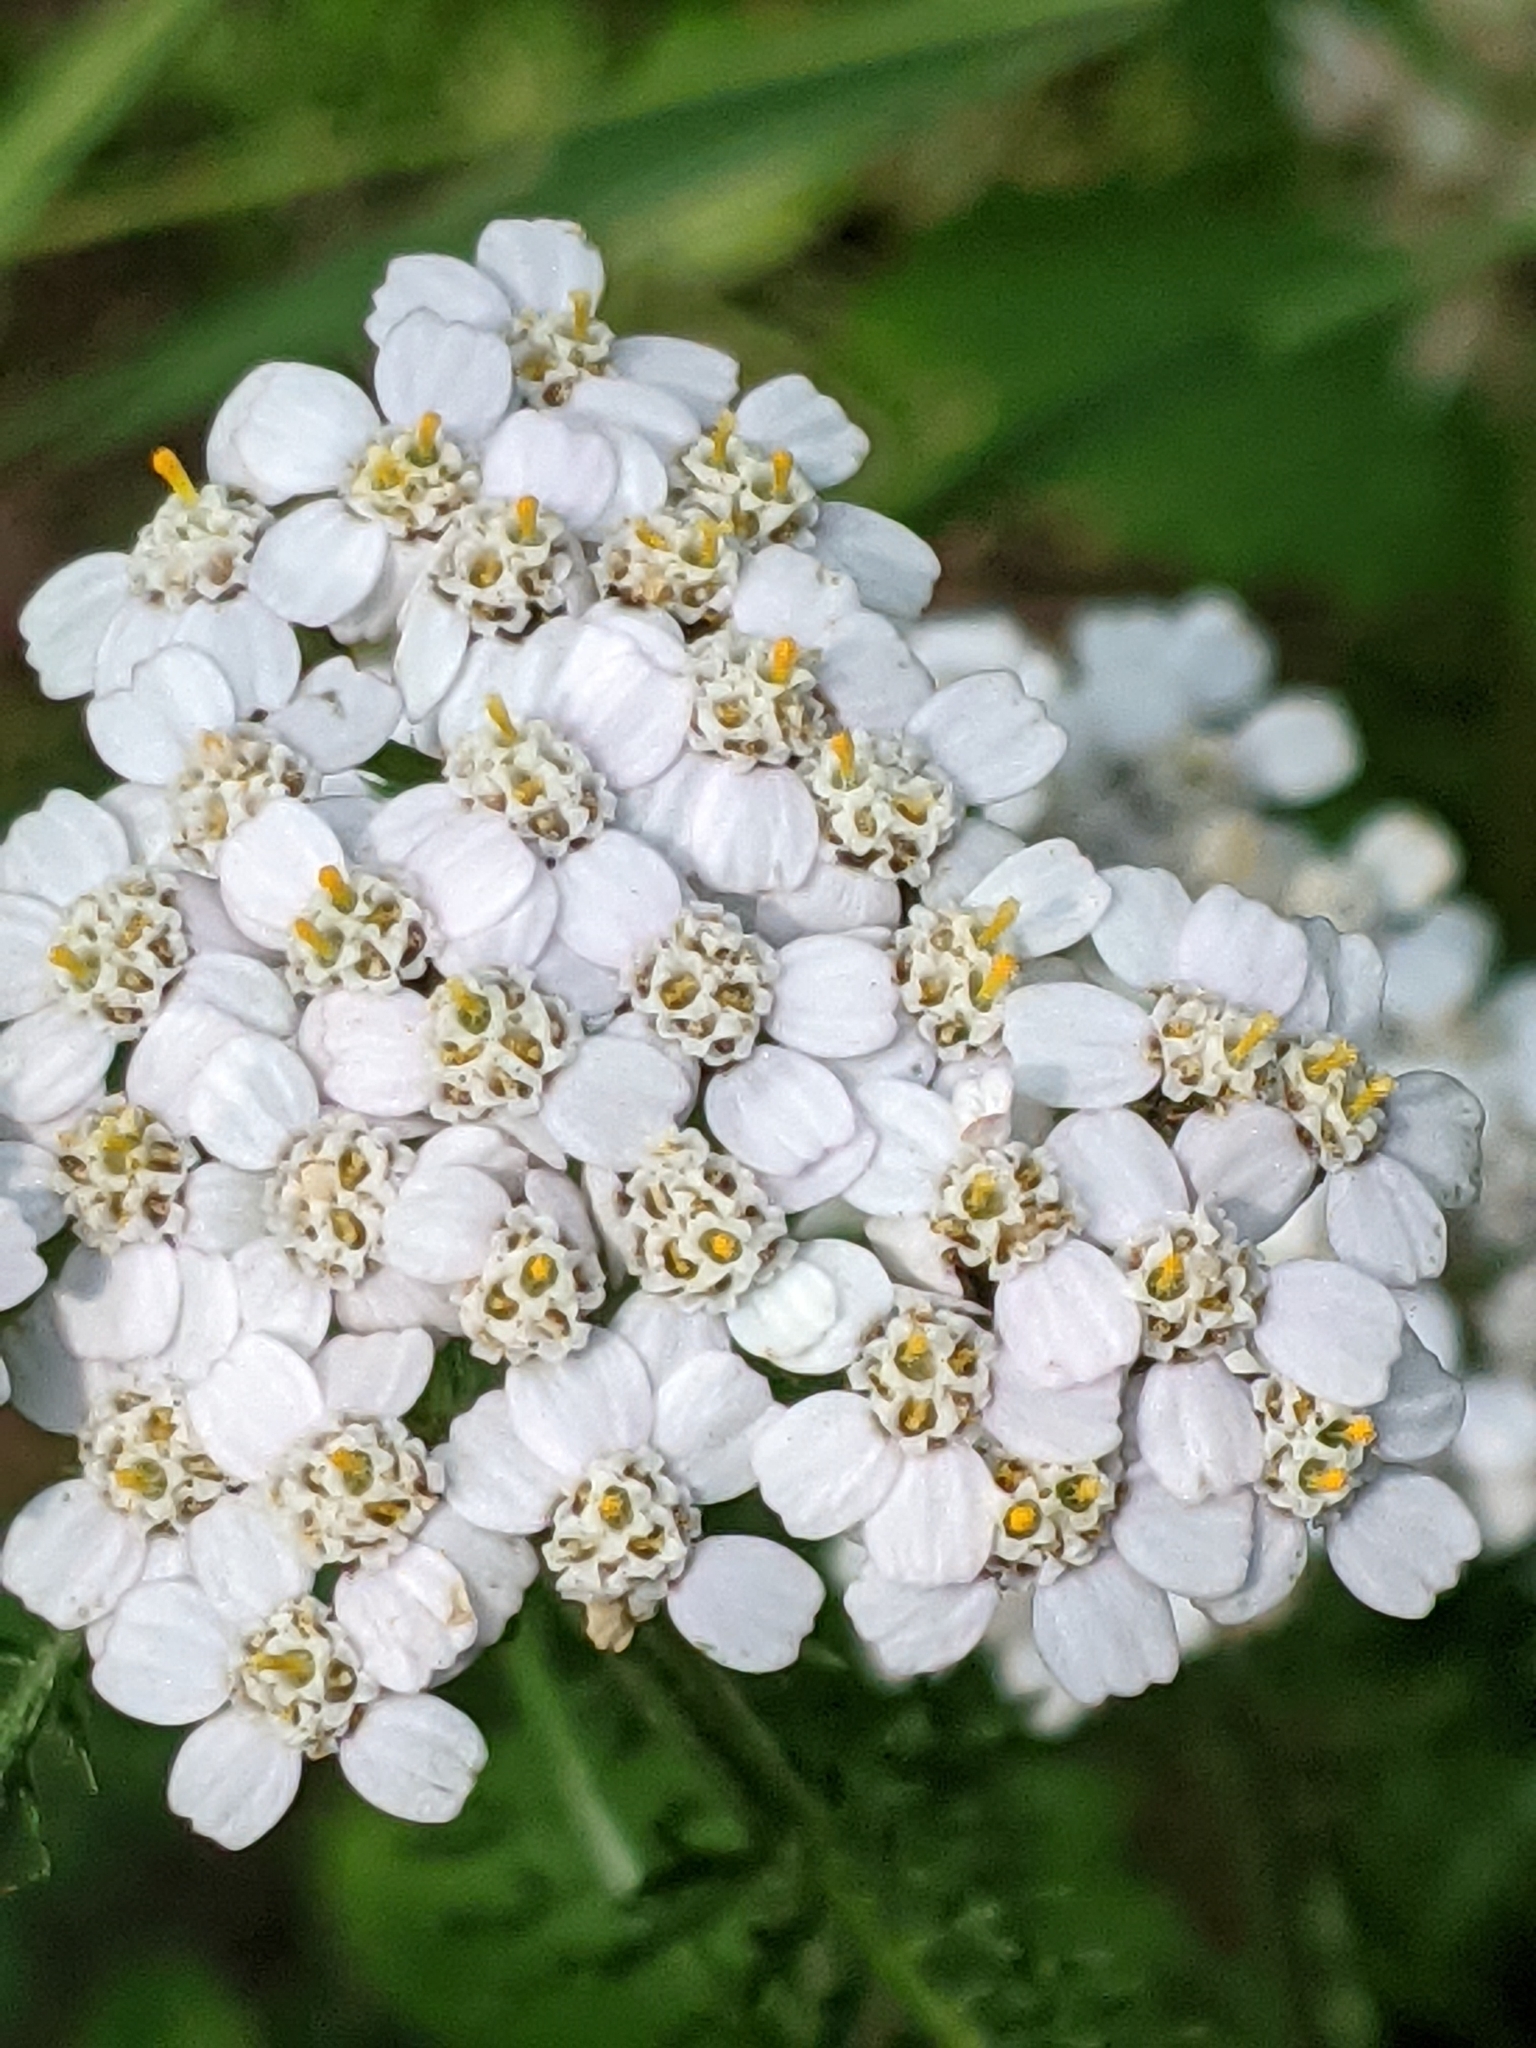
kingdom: Plantae
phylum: Tracheophyta
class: Magnoliopsida
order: Asterales
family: Asteraceae
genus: Achillea
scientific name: Achillea millefolium
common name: Yarrow
